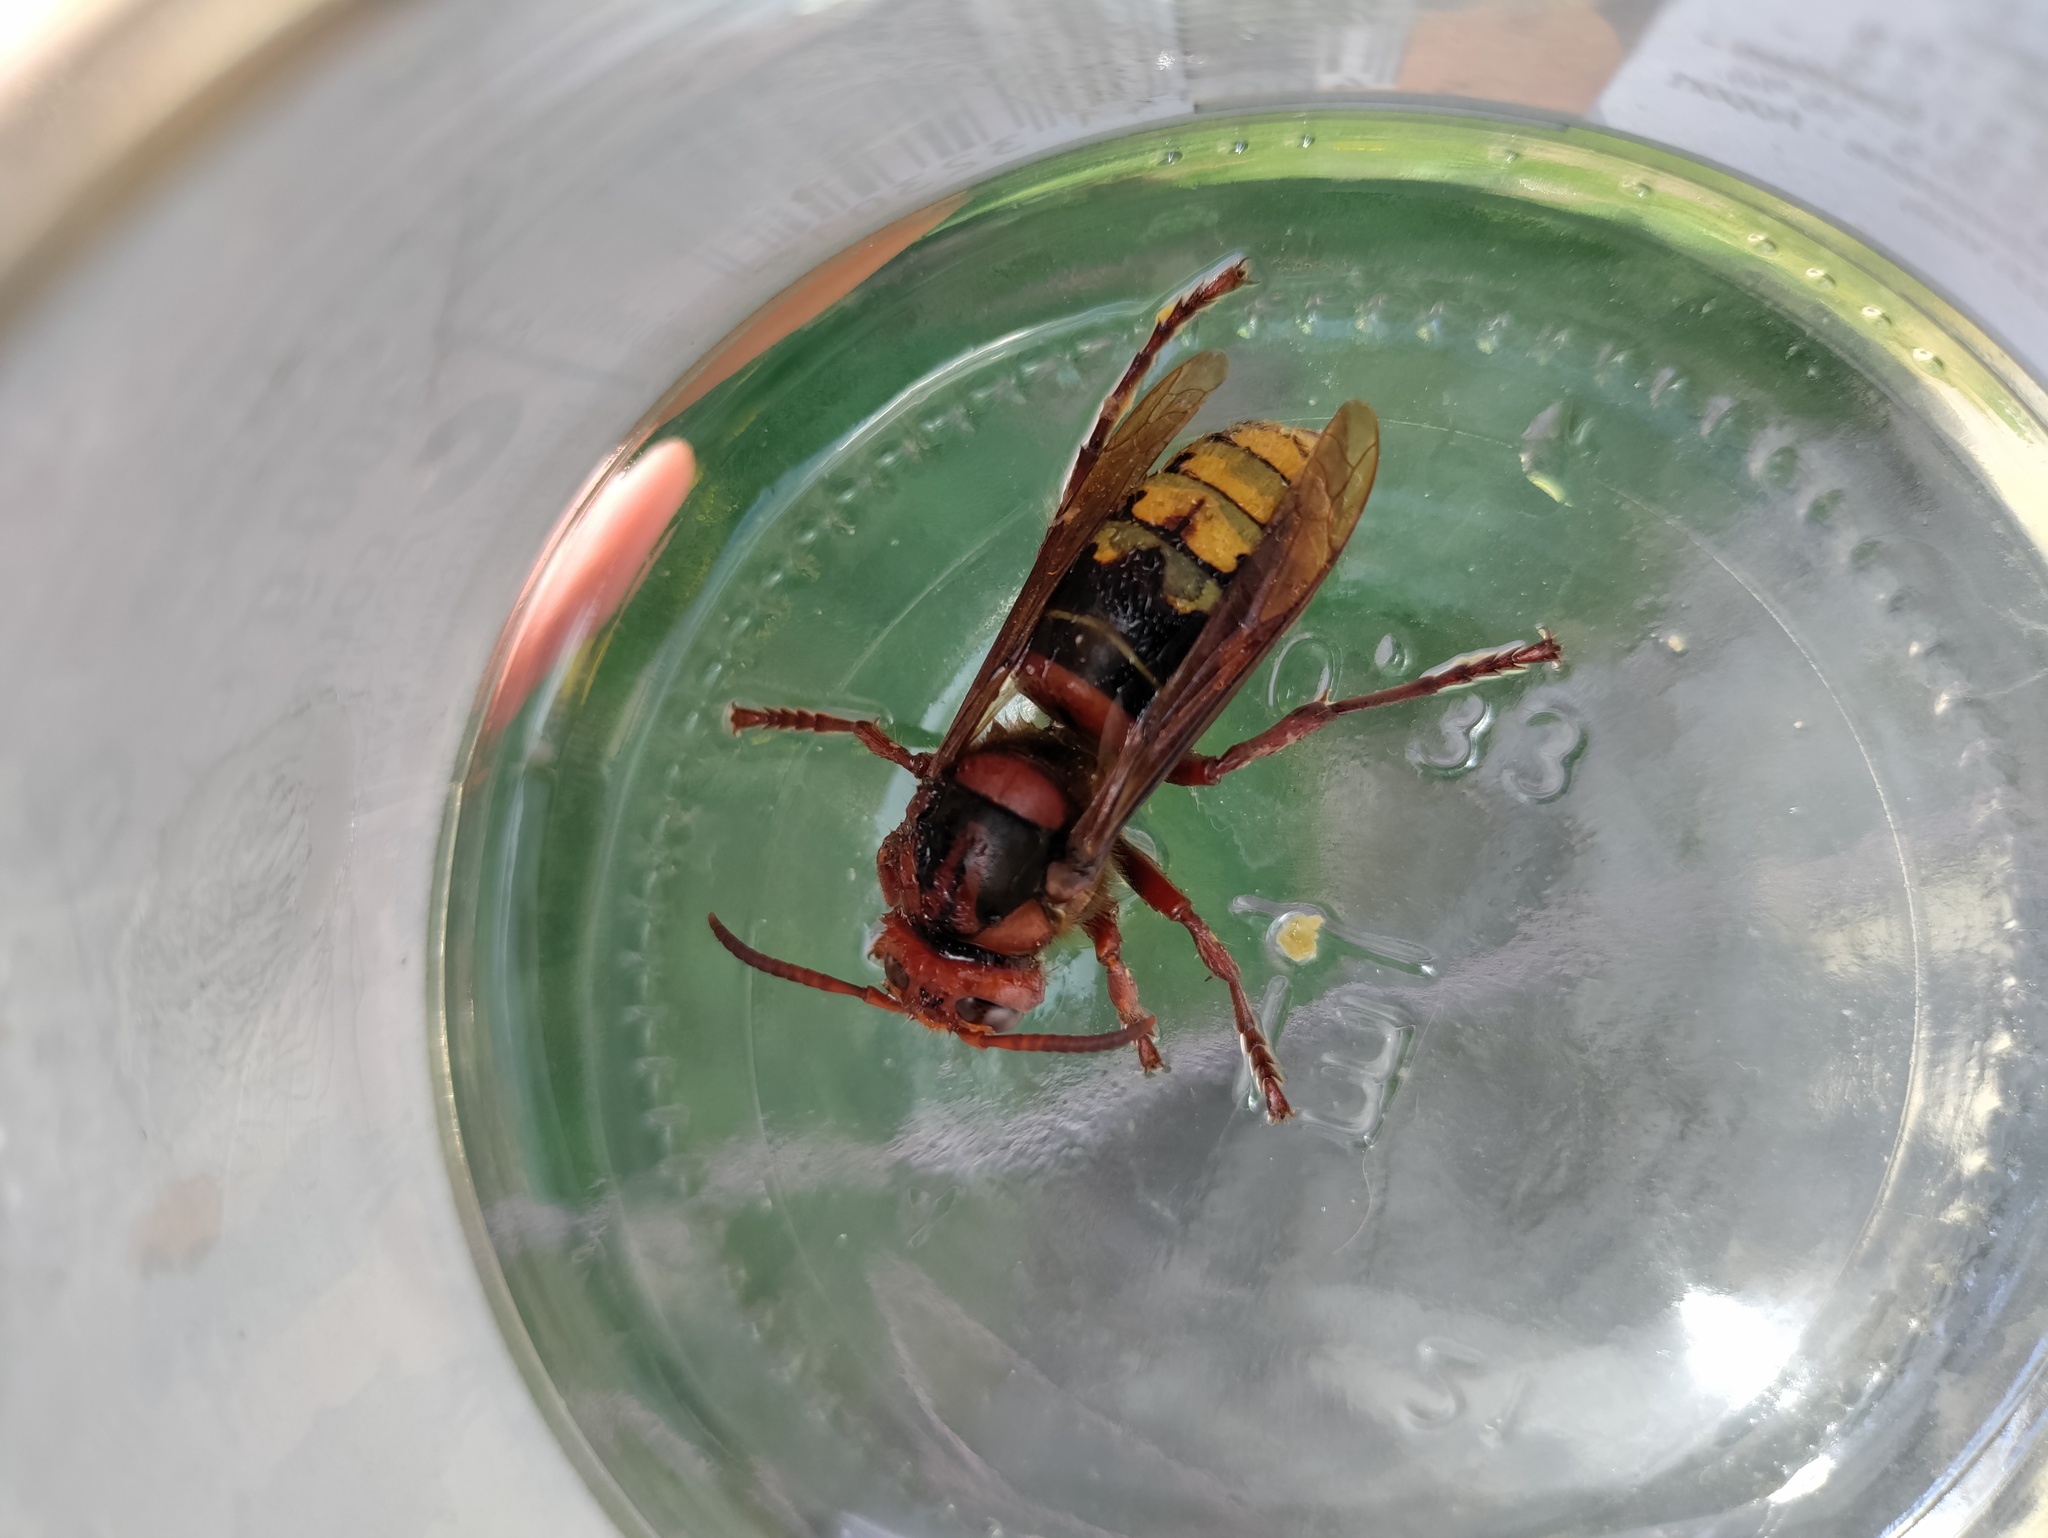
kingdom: Animalia
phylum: Arthropoda
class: Insecta
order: Hymenoptera
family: Vespidae
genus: Vespa
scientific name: Vespa crabro
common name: Hornet
